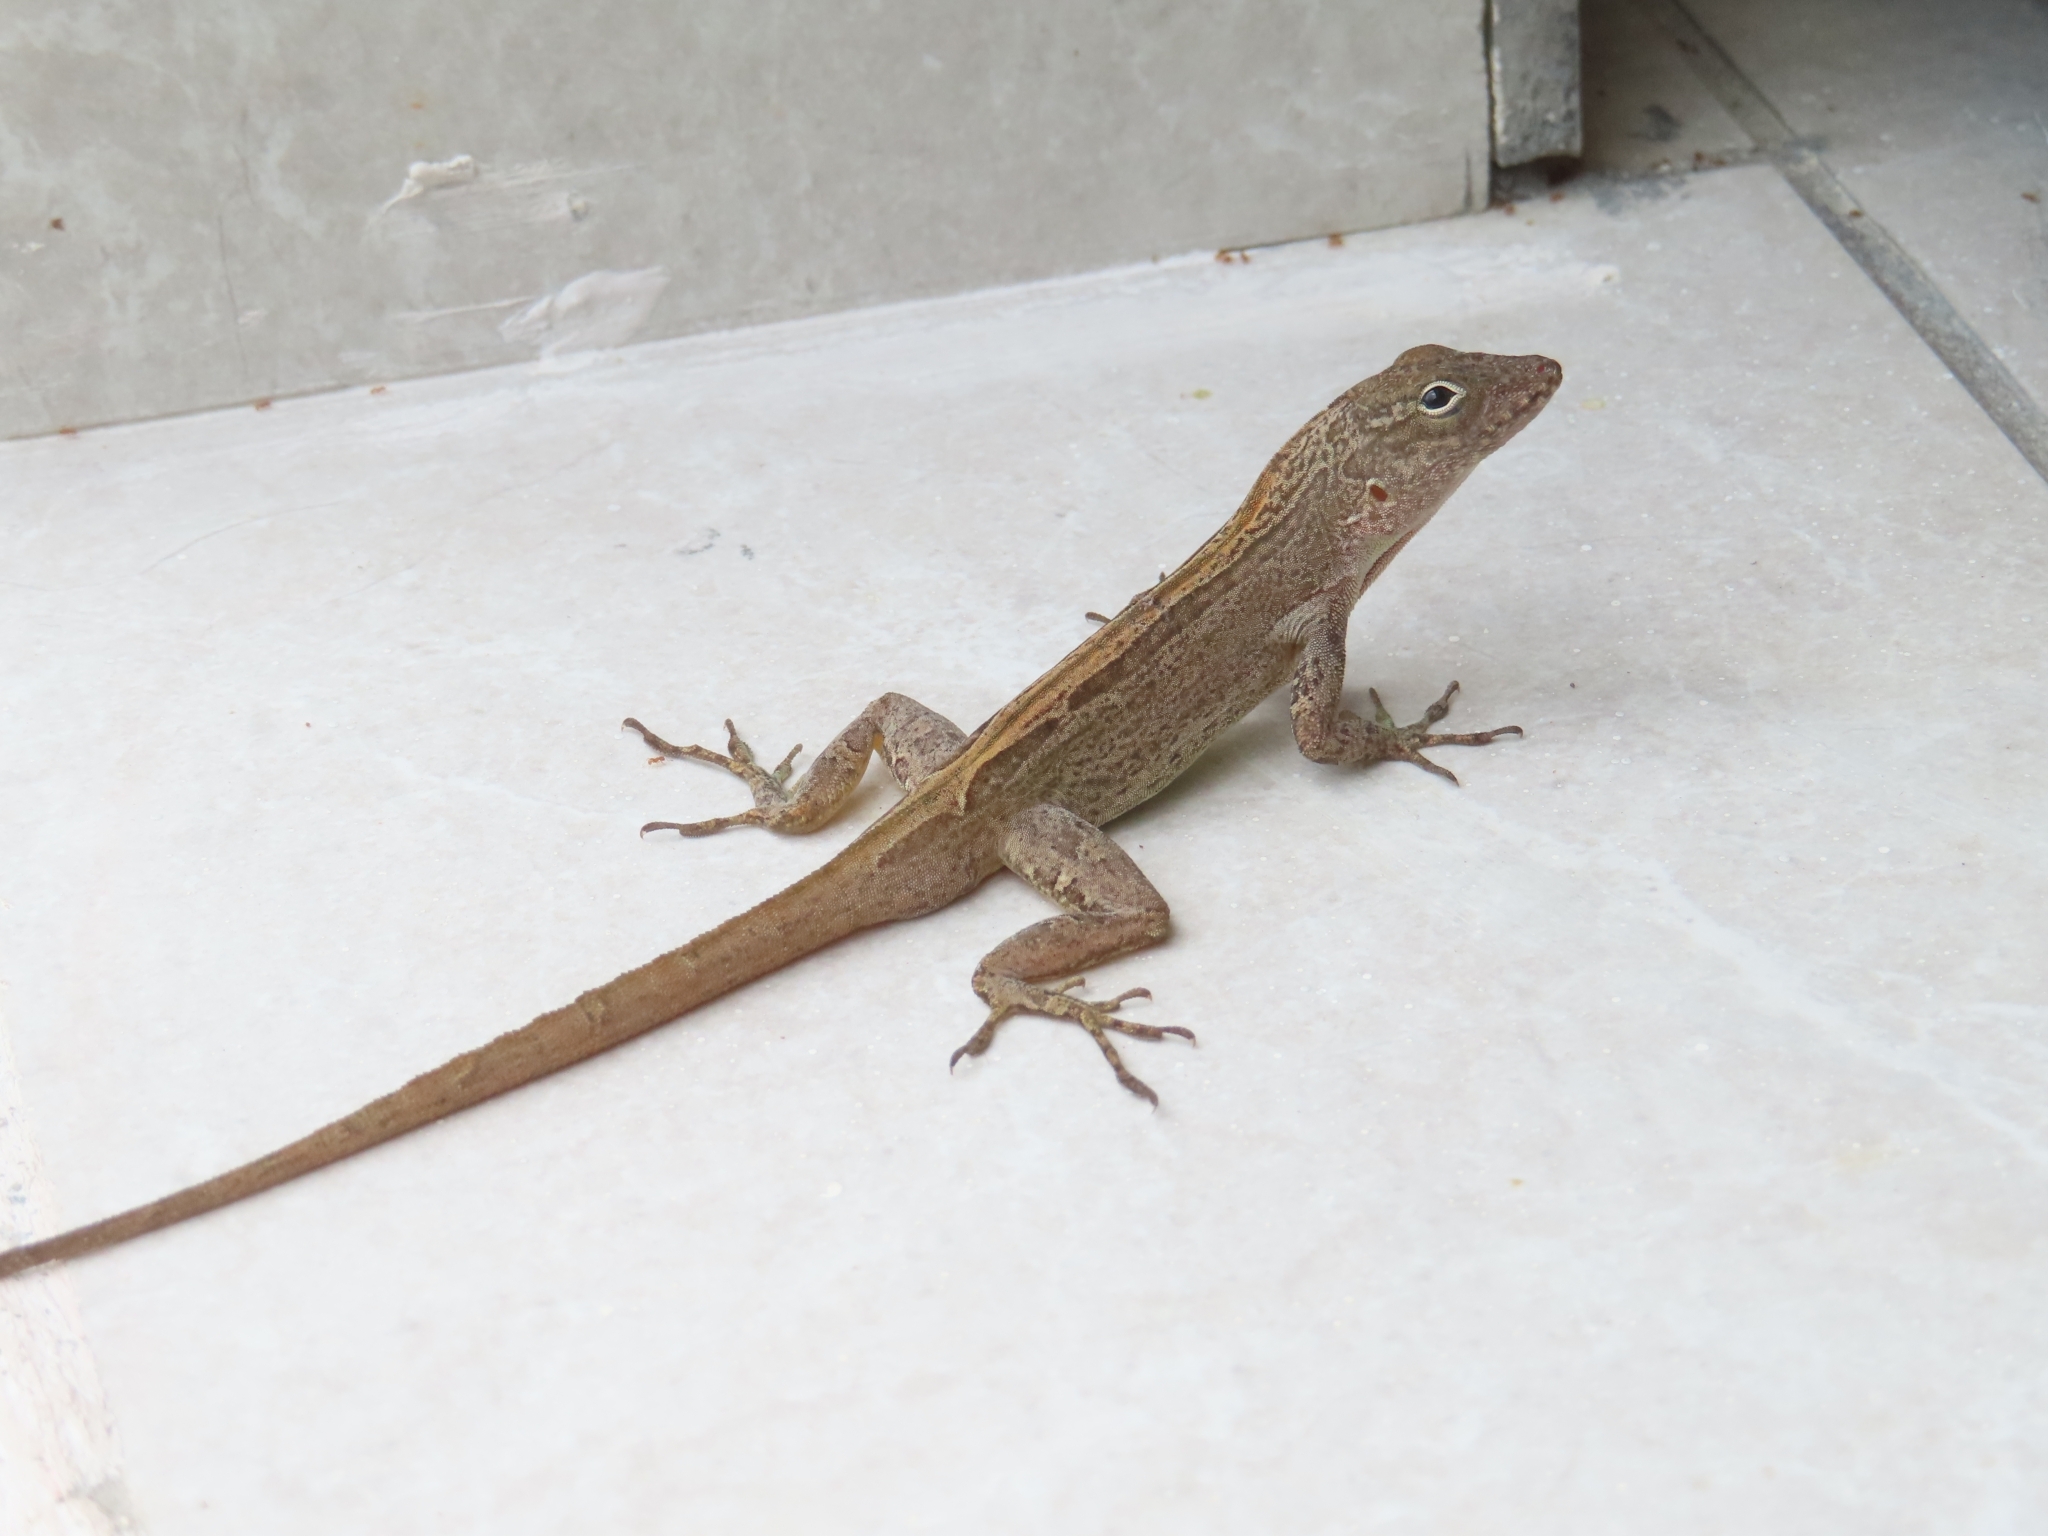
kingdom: Animalia
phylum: Chordata
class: Squamata
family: Dactyloidae
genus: Anolis
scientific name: Anolis cristatellus
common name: Crested anole
